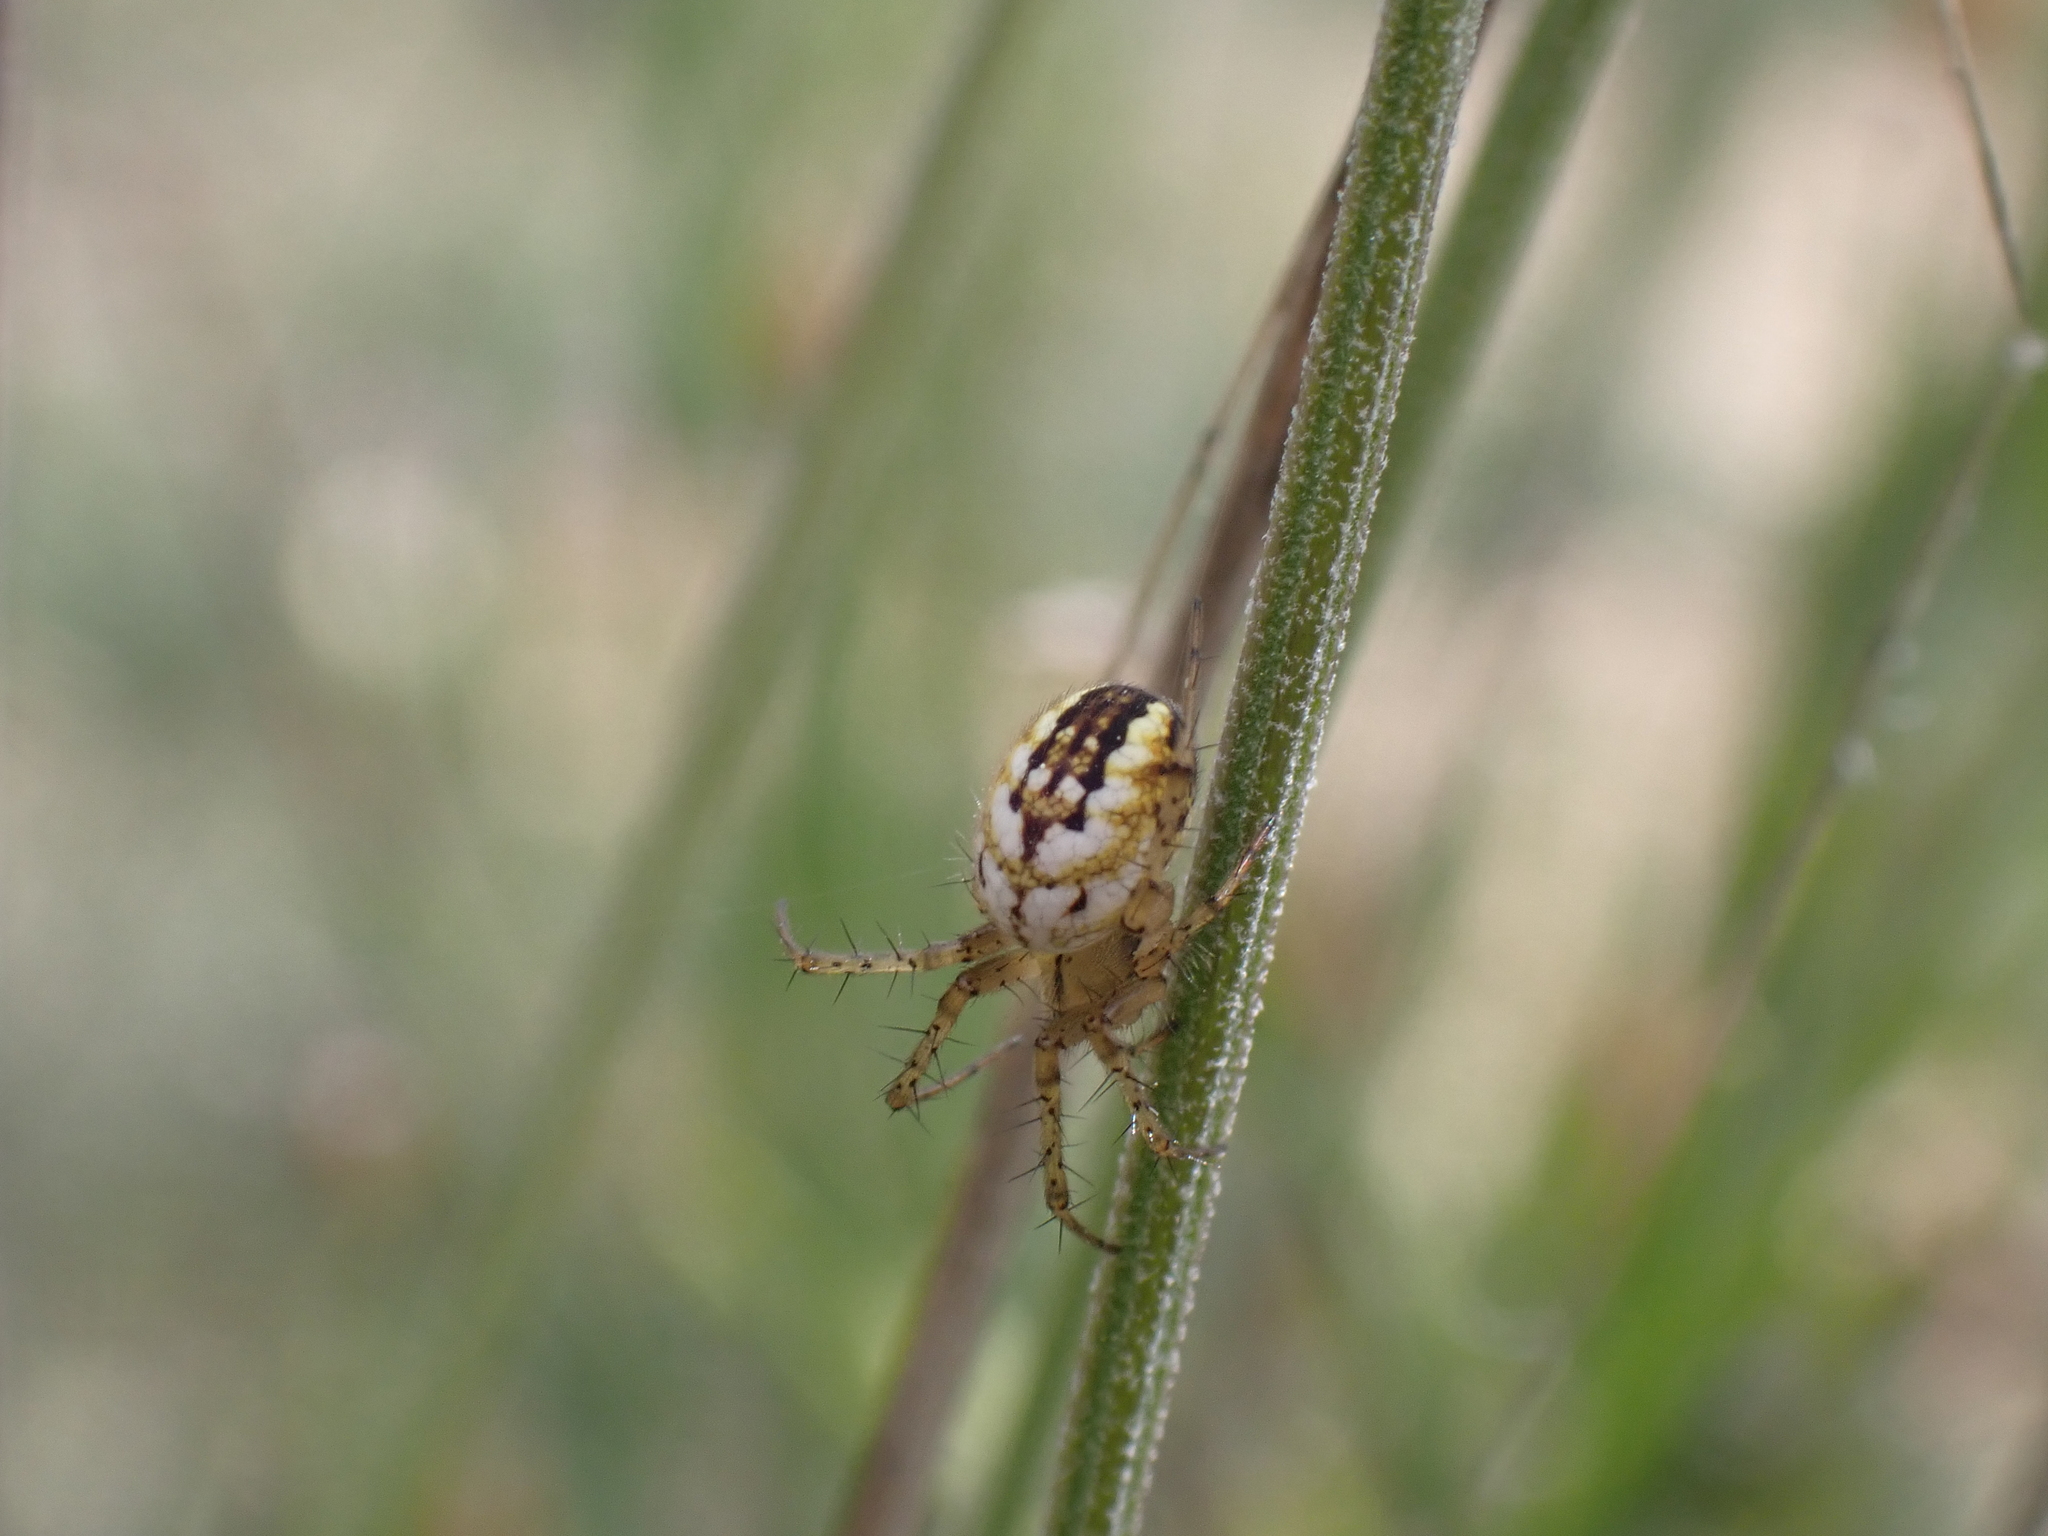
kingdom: Animalia
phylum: Arthropoda
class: Arachnida
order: Araneae
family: Araneidae
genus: Mangora
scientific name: Mangora acalypha
